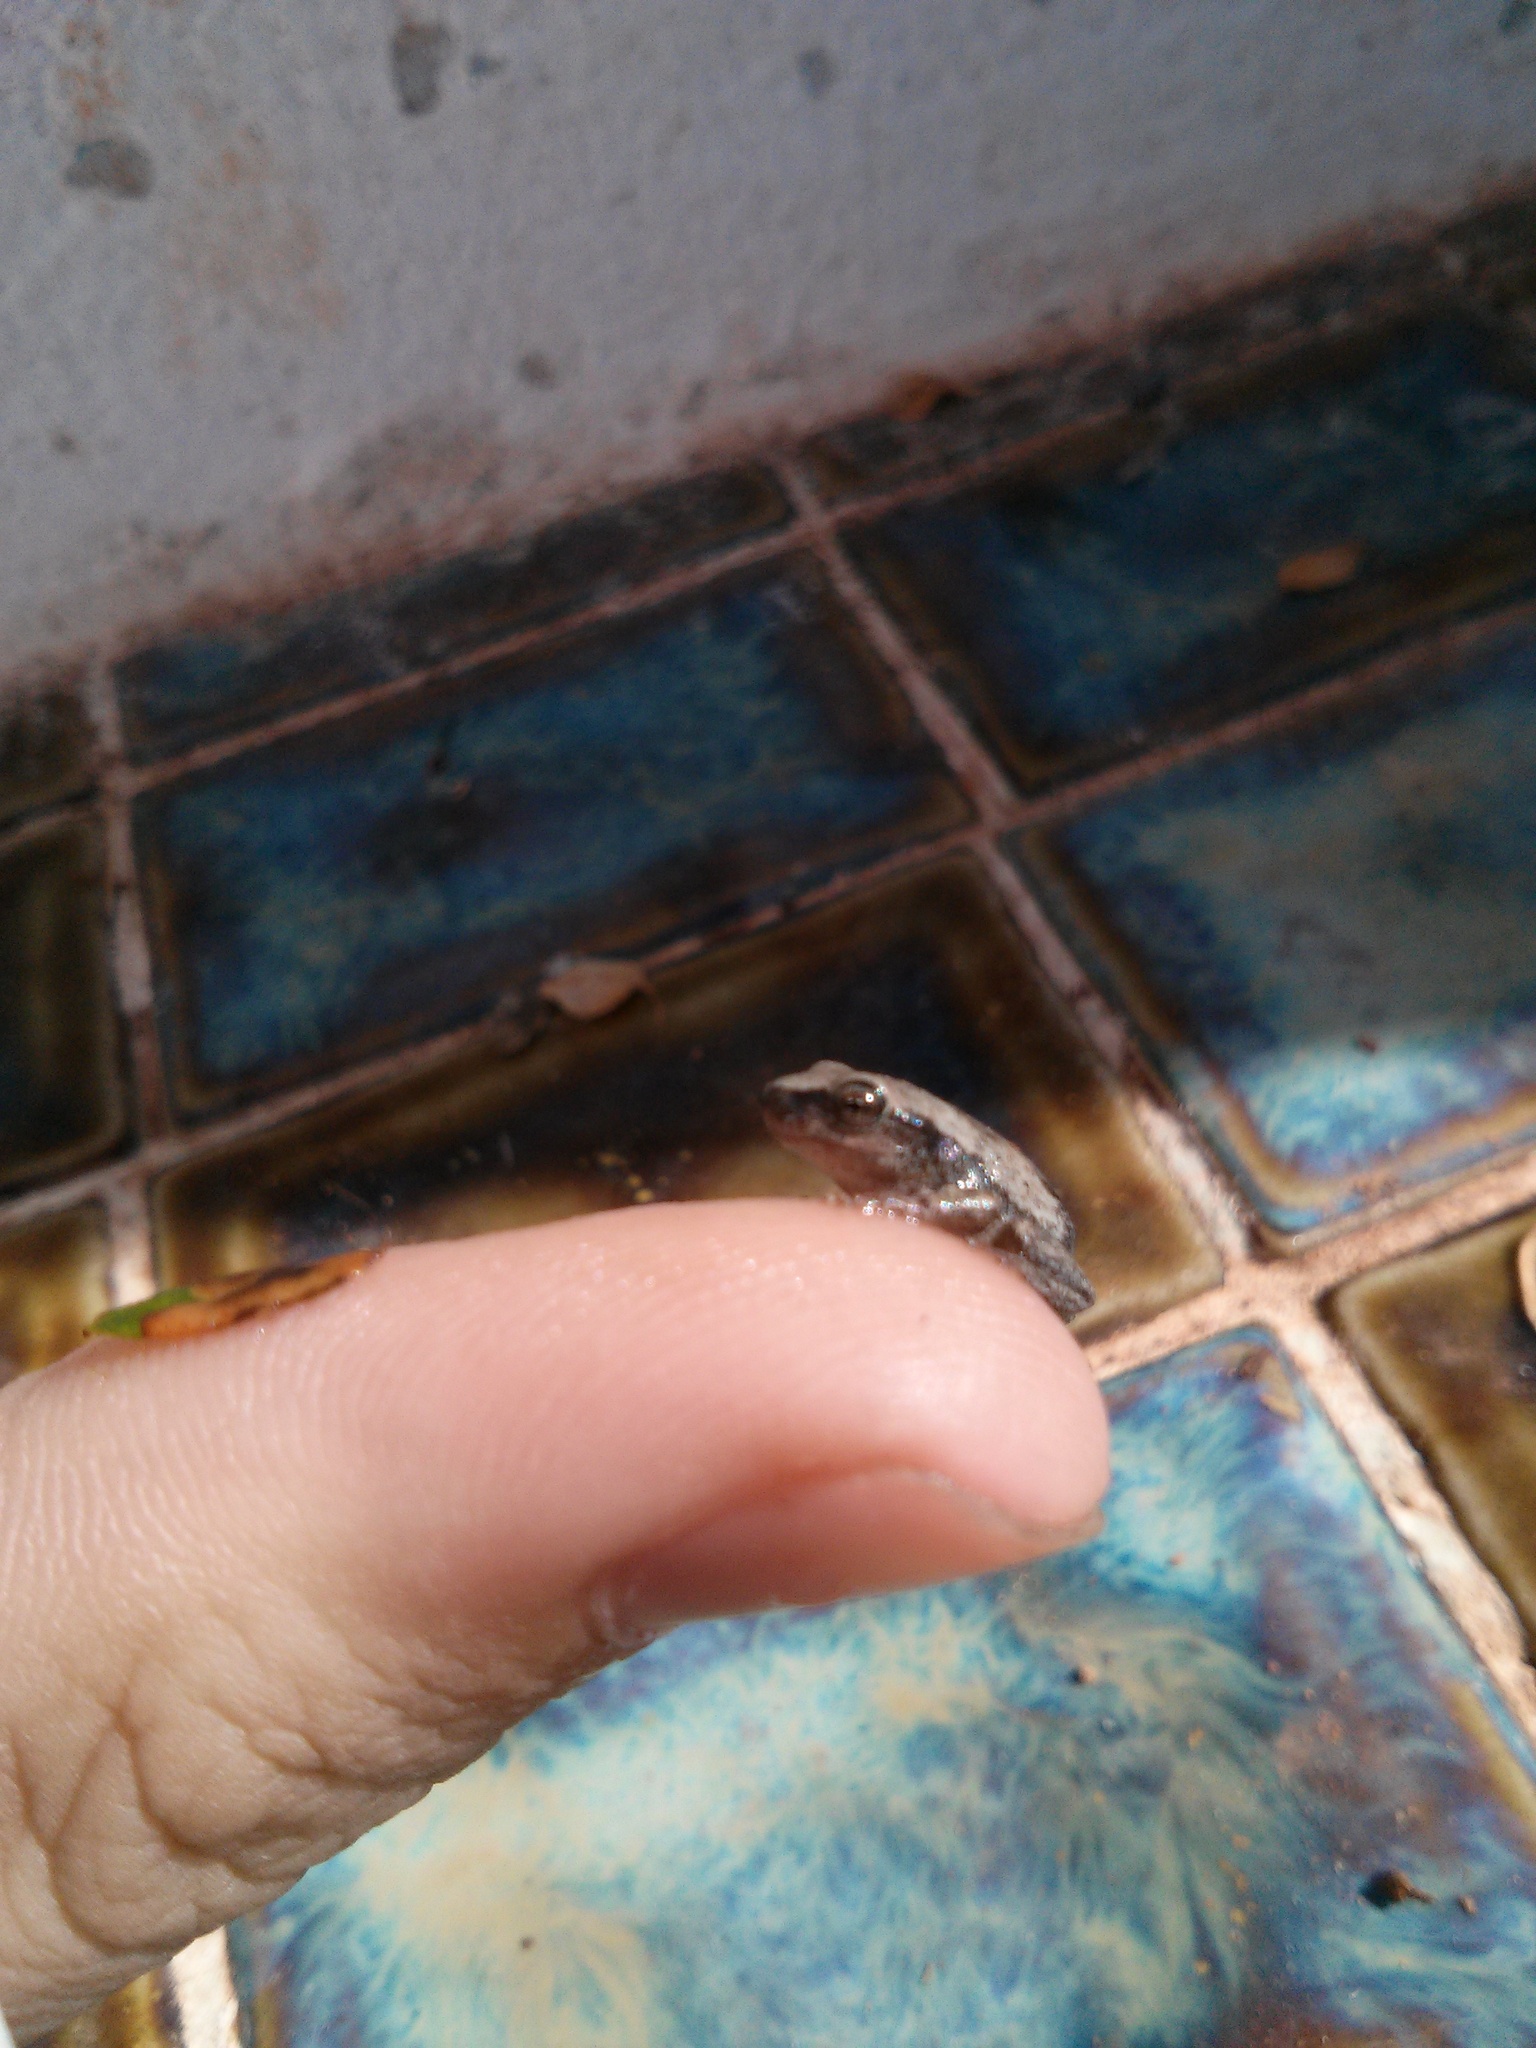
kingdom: Animalia
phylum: Chordata
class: Amphibia
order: Anura
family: Pelodryadidae
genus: Litoria
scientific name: Litoria peronii
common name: Emerald spotted treefrog
